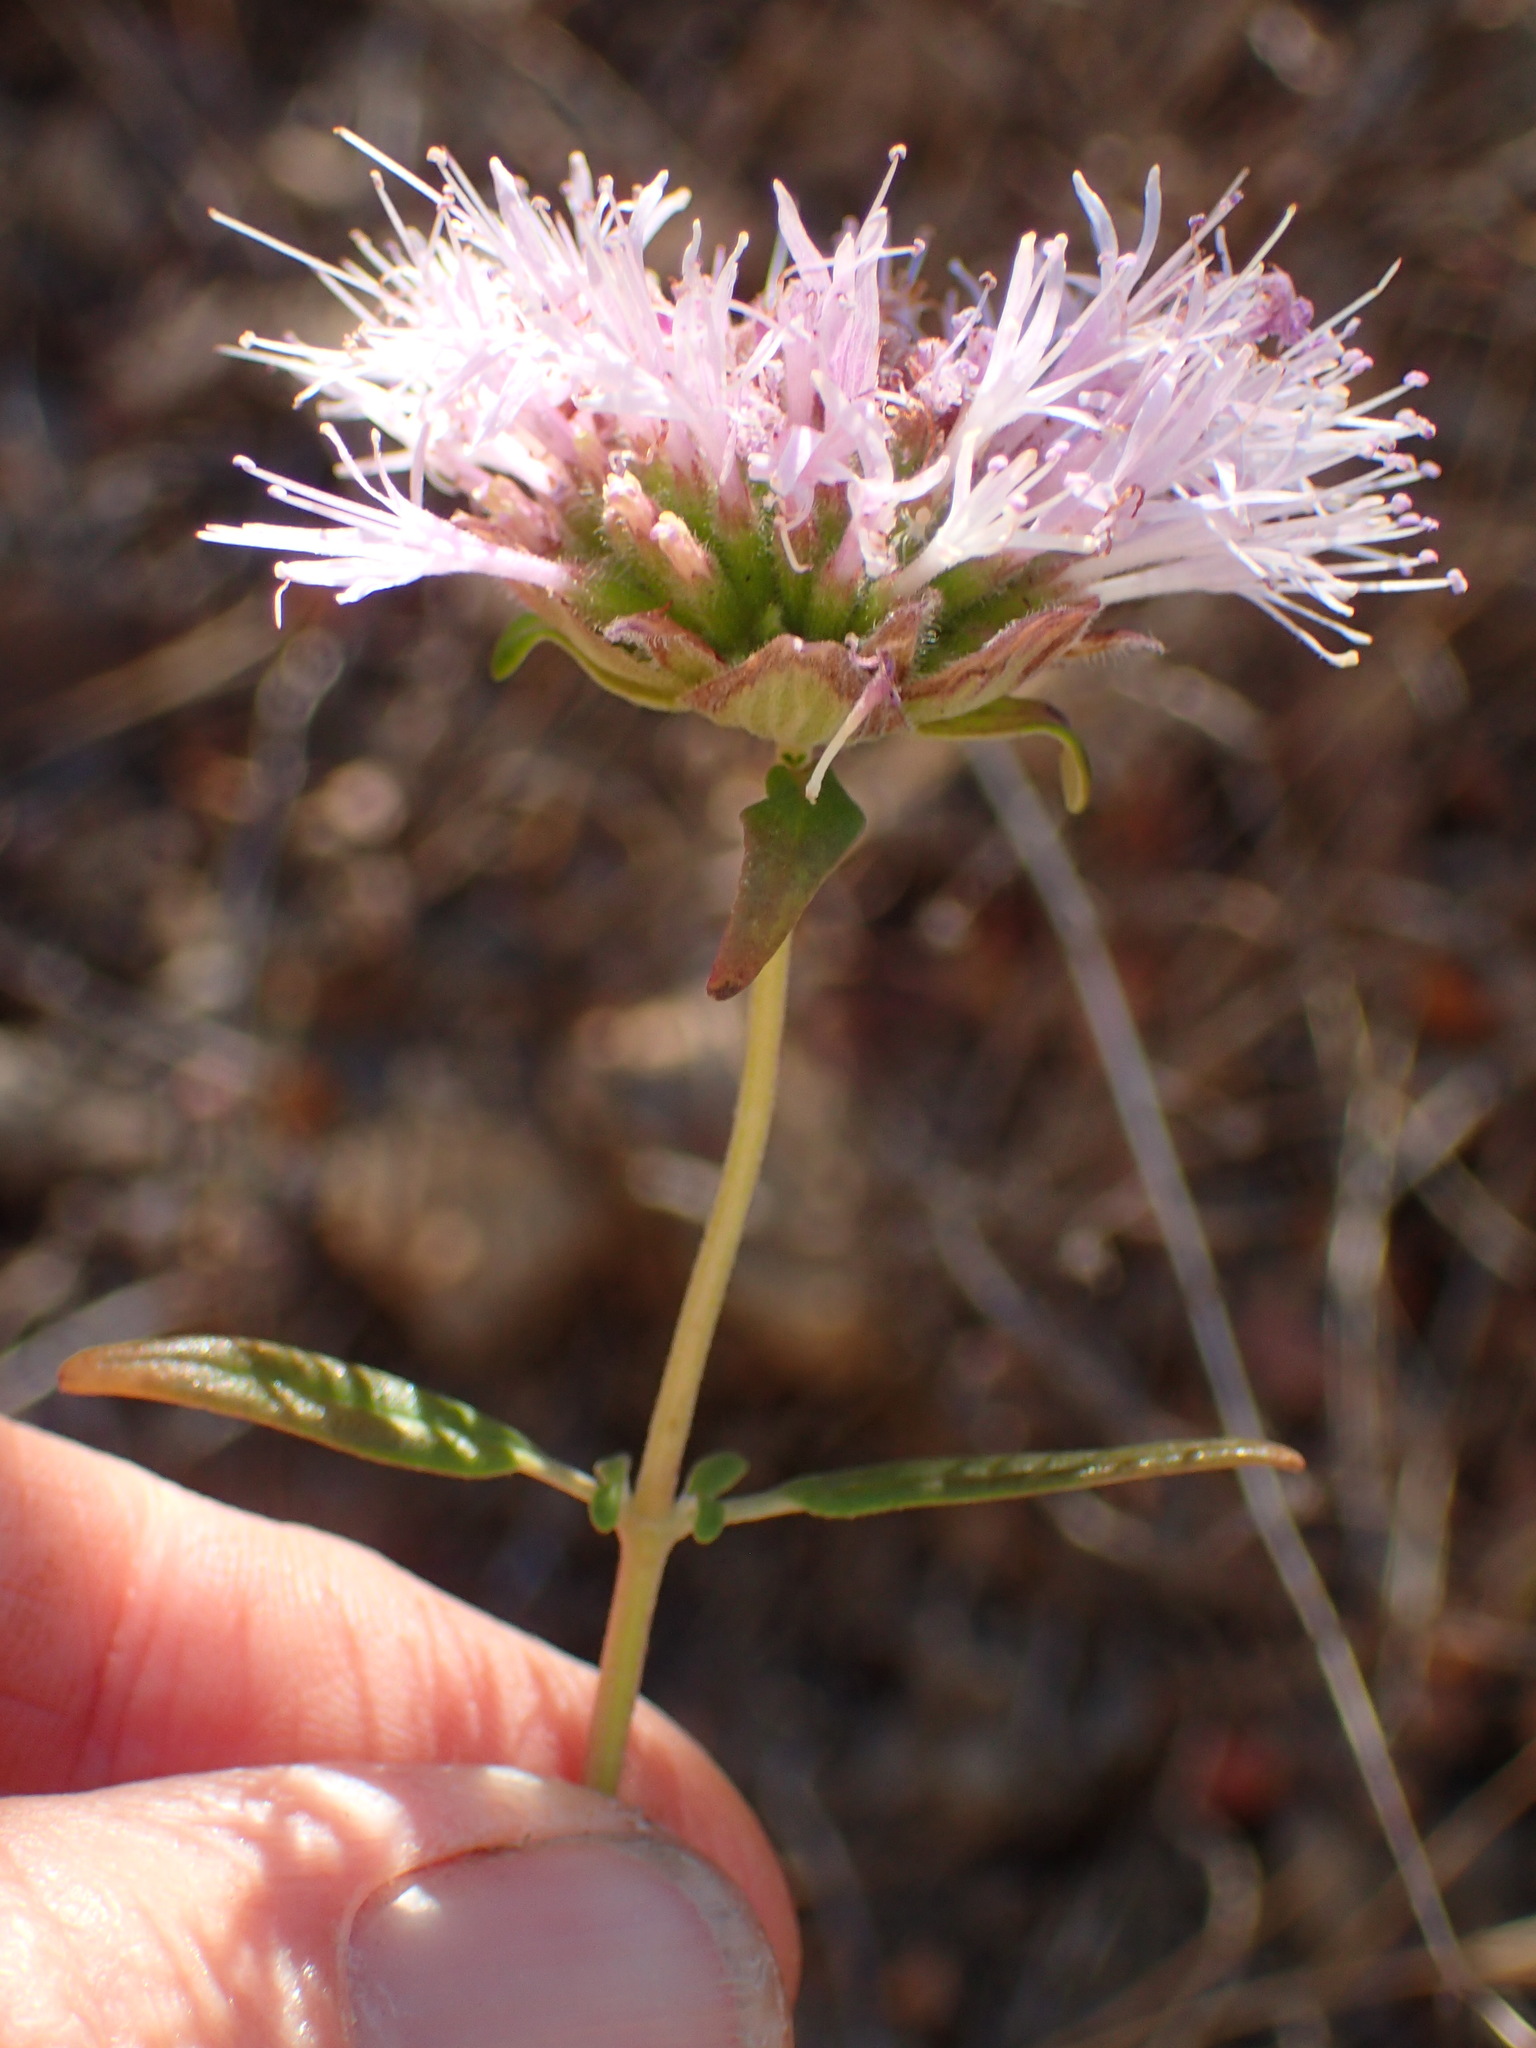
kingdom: Plantae
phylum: Tracheophyta
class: Magnoliopsida
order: Lamiales
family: Lamiaceae
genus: Monardella
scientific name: Monardella hypoleuca
